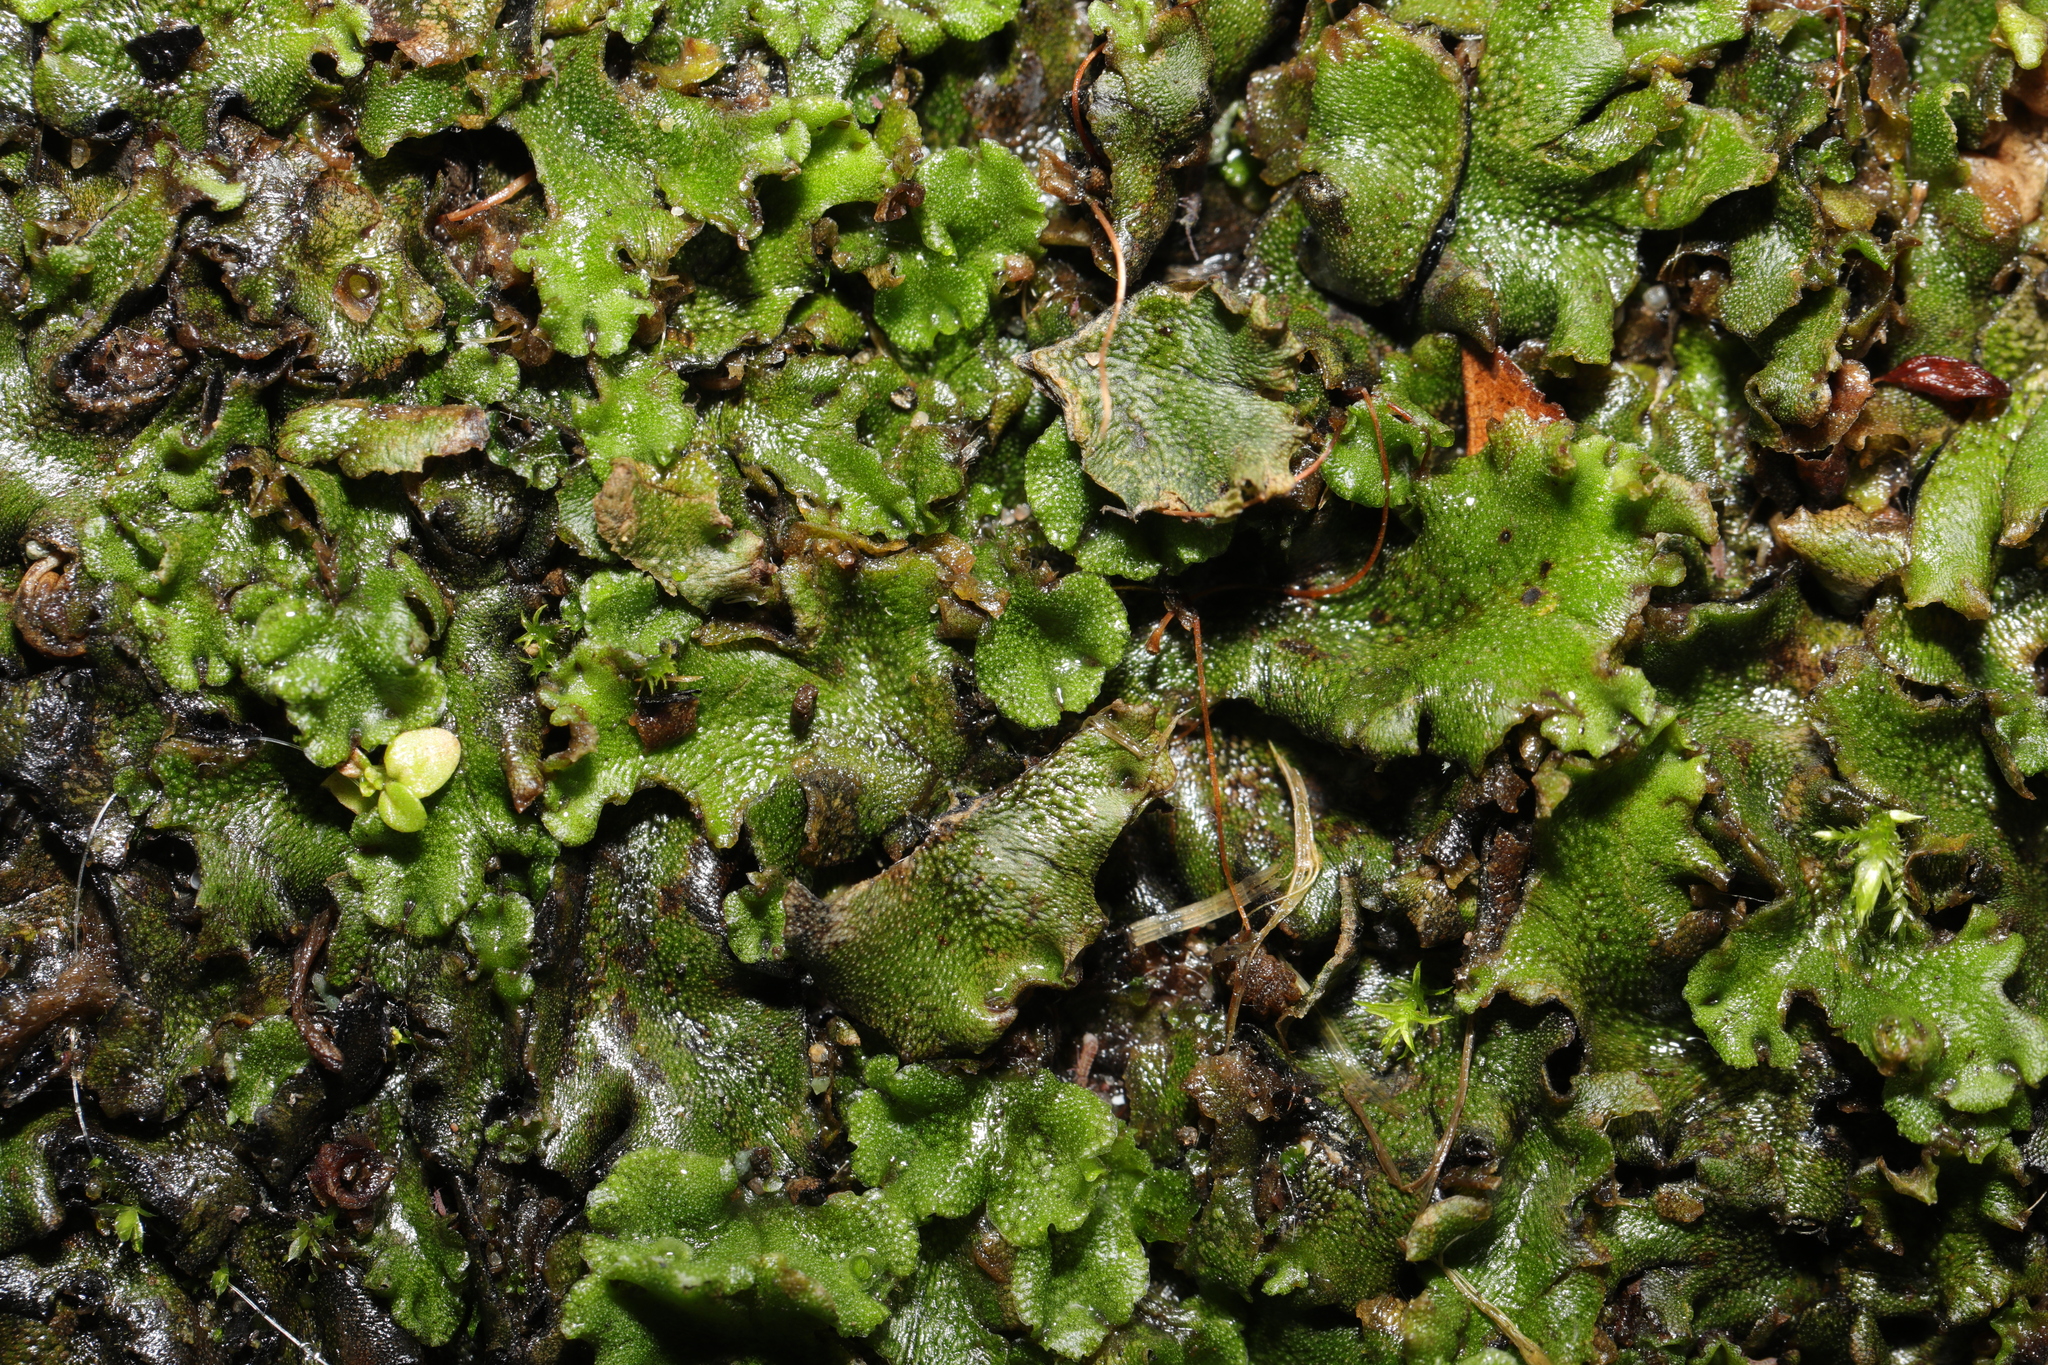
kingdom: Plantae
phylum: Marchantiophyta
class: Marchantiopsida
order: Marchantiales
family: Marchantiaceae
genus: Marchantia
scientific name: Marchantia polymorpha
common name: Common liverwort
